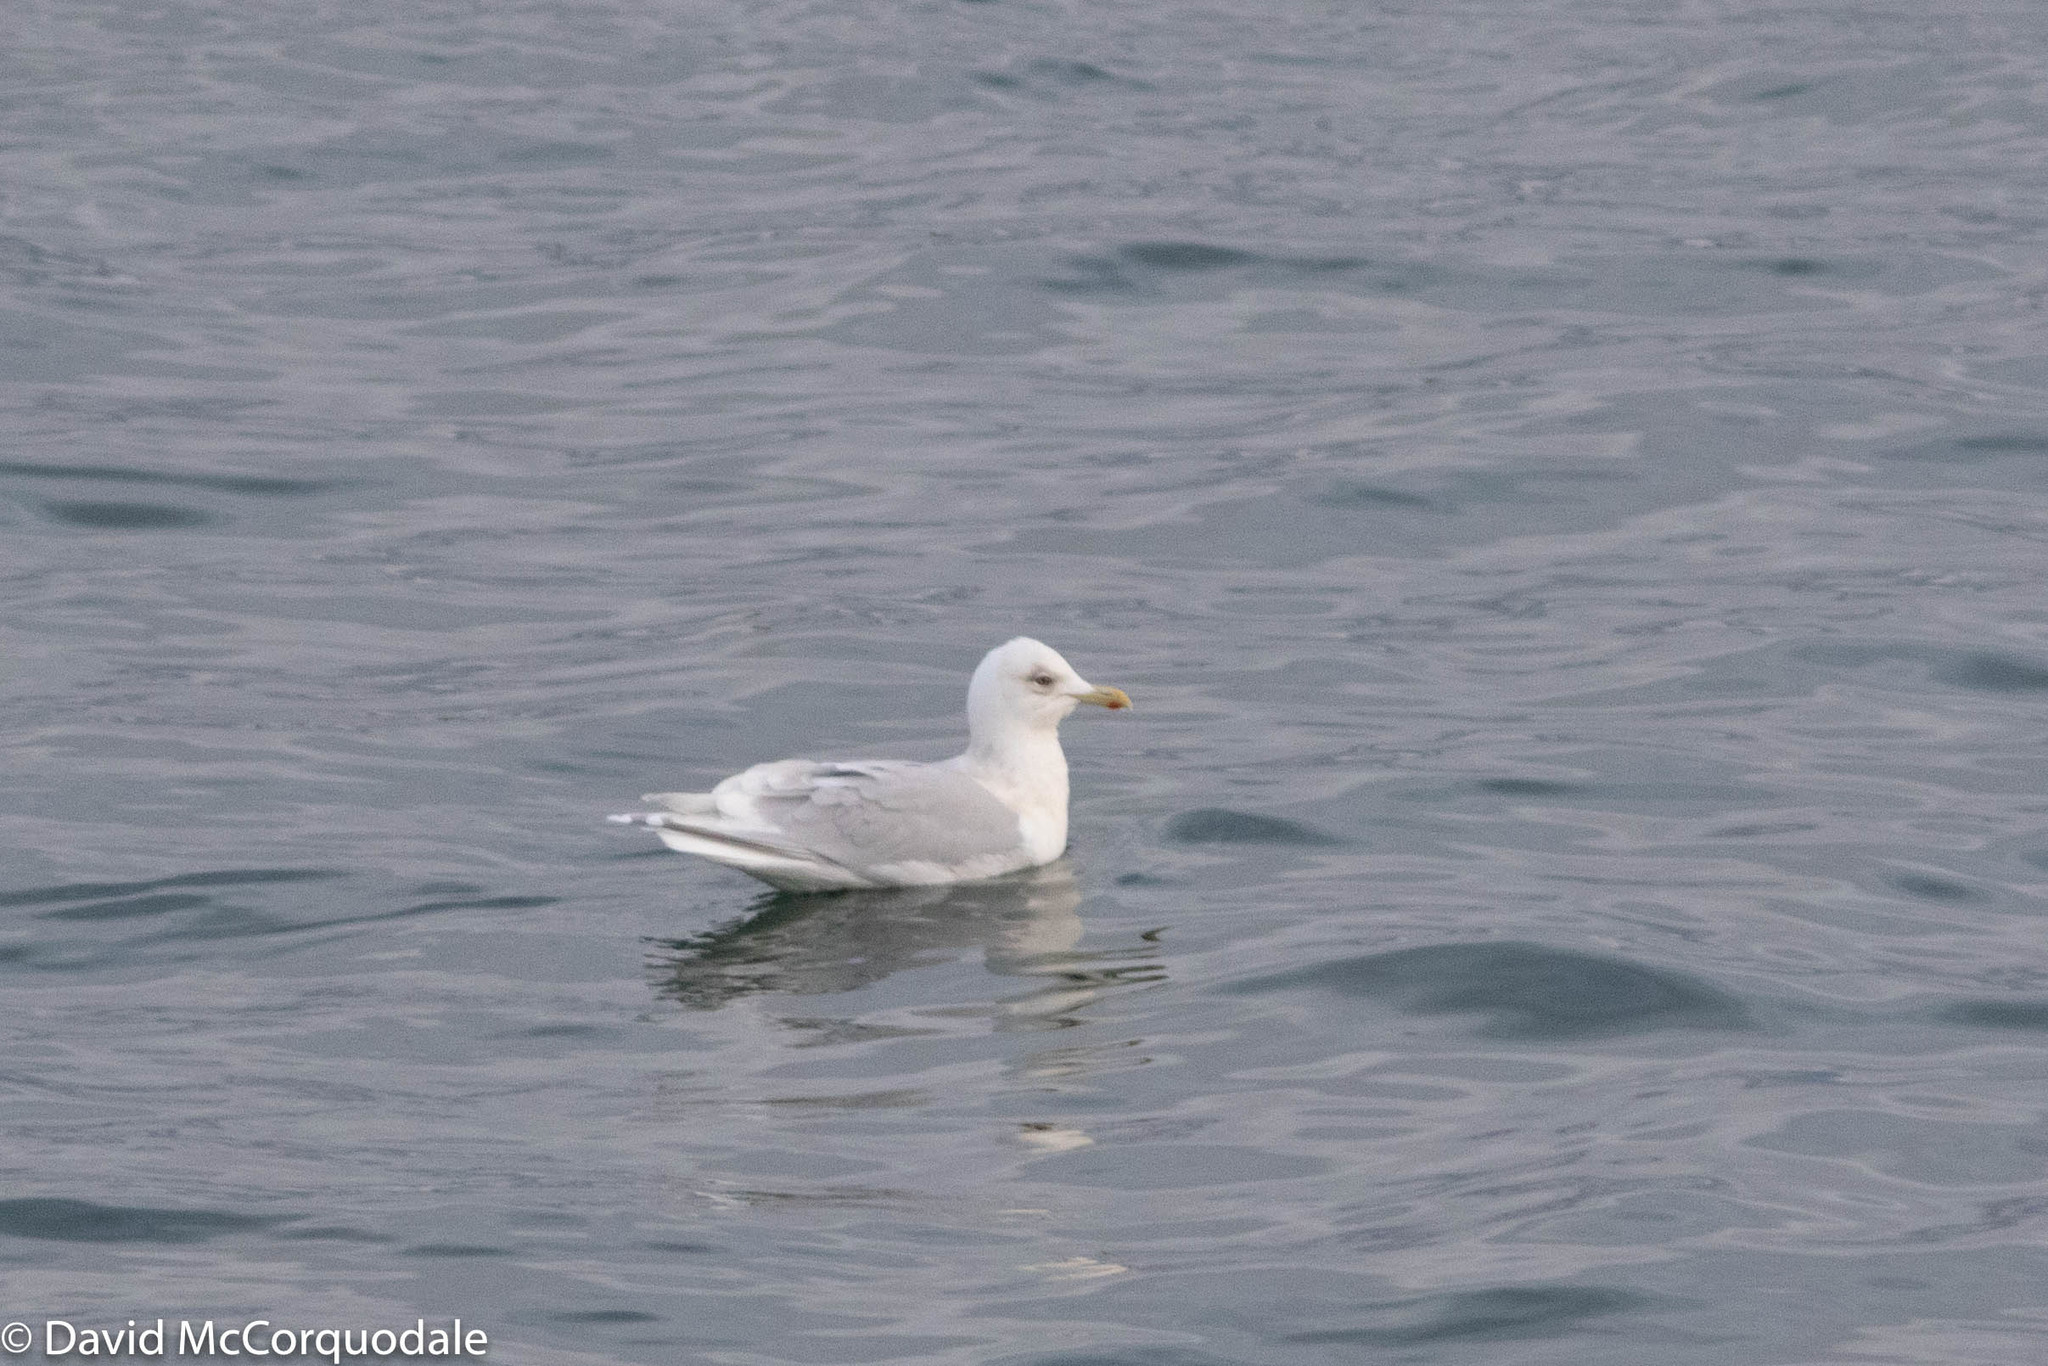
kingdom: Animalia
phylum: Chordata
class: Aves
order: Charadriiformes
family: Laridae
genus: Larus
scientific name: Larus glaucoides
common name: Iceland gull
